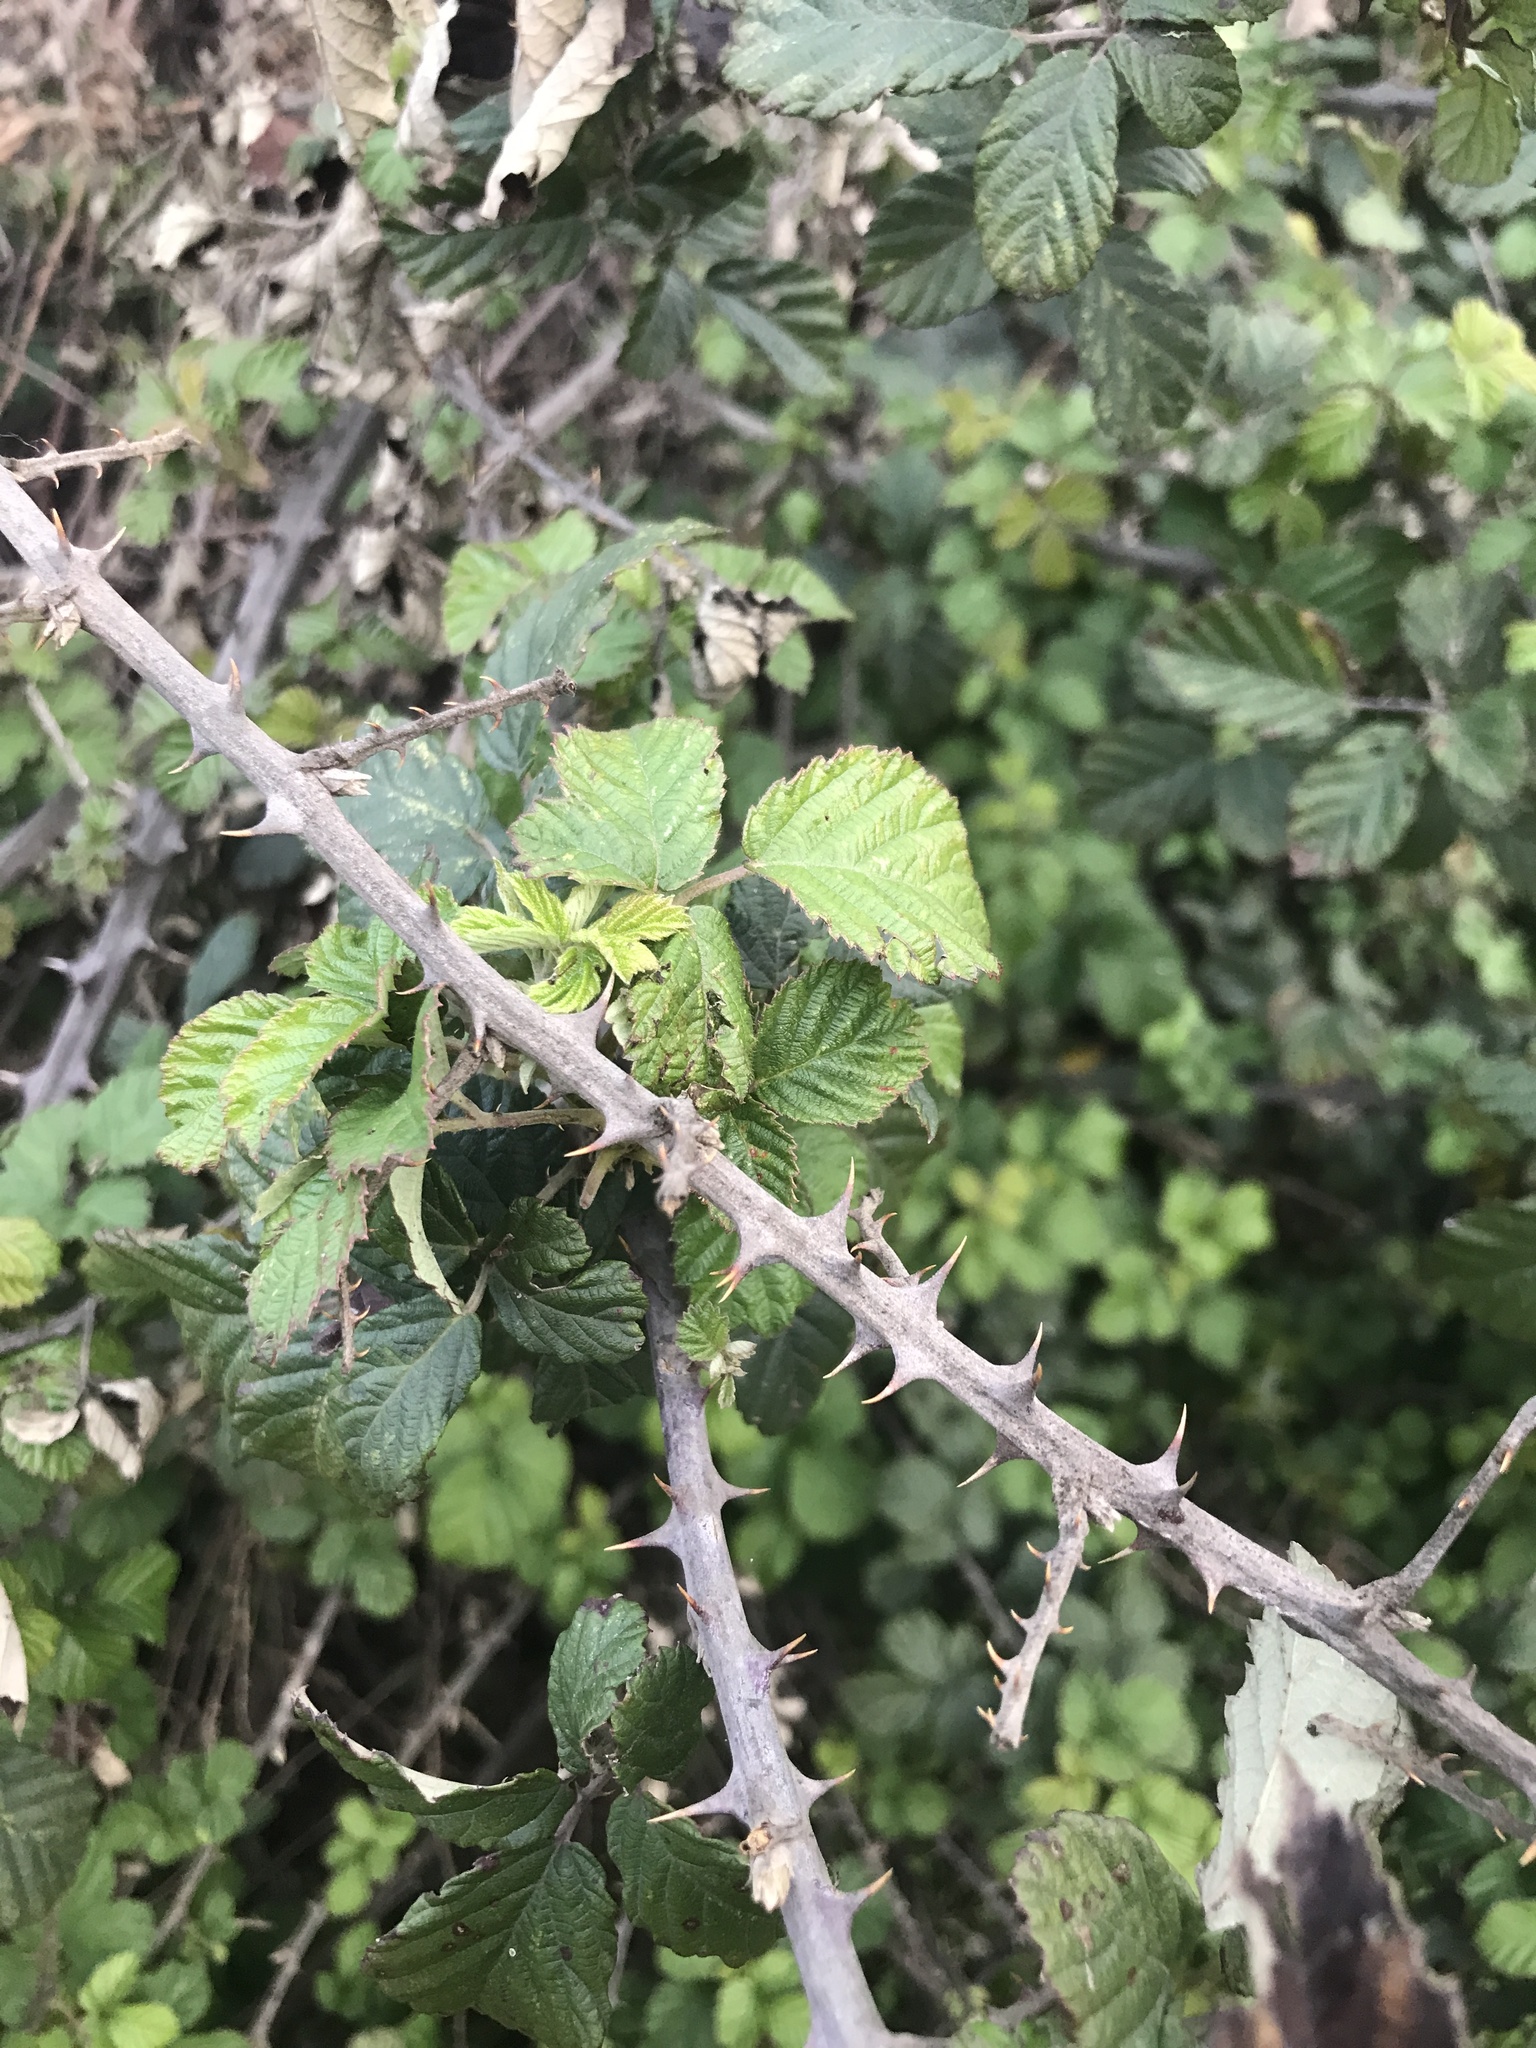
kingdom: Plantae
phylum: Tracheophyta
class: Magnoliopsida
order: Rosales
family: Rosaceae
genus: Rubus
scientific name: Rubus ulmifolius
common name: Elmleaf blackberry
